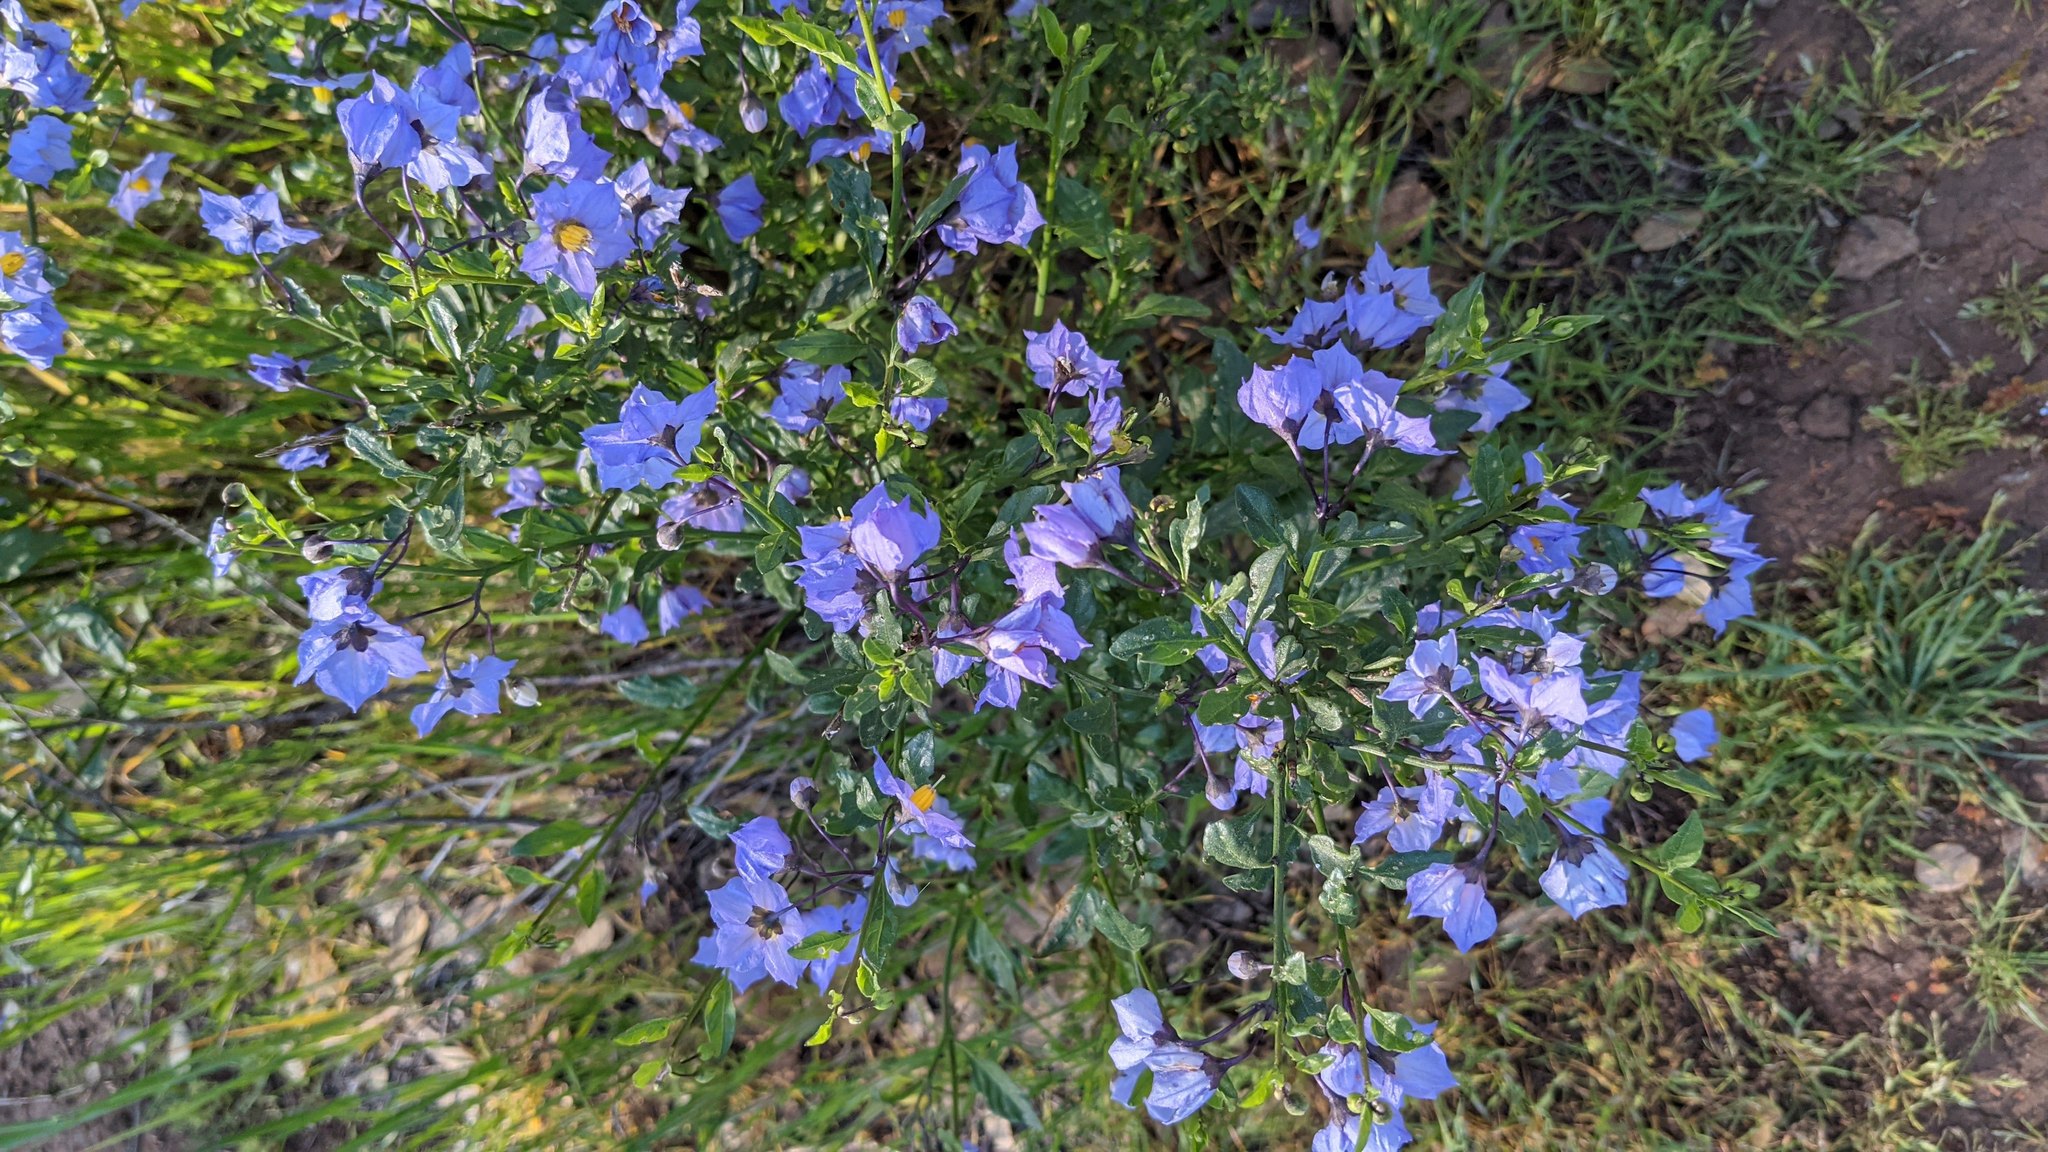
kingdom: Plantae
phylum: Tracheophyta
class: Magnoliopsida
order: Solanales
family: Solanaceae
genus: Solanum
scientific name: Solanum umbelliferum
